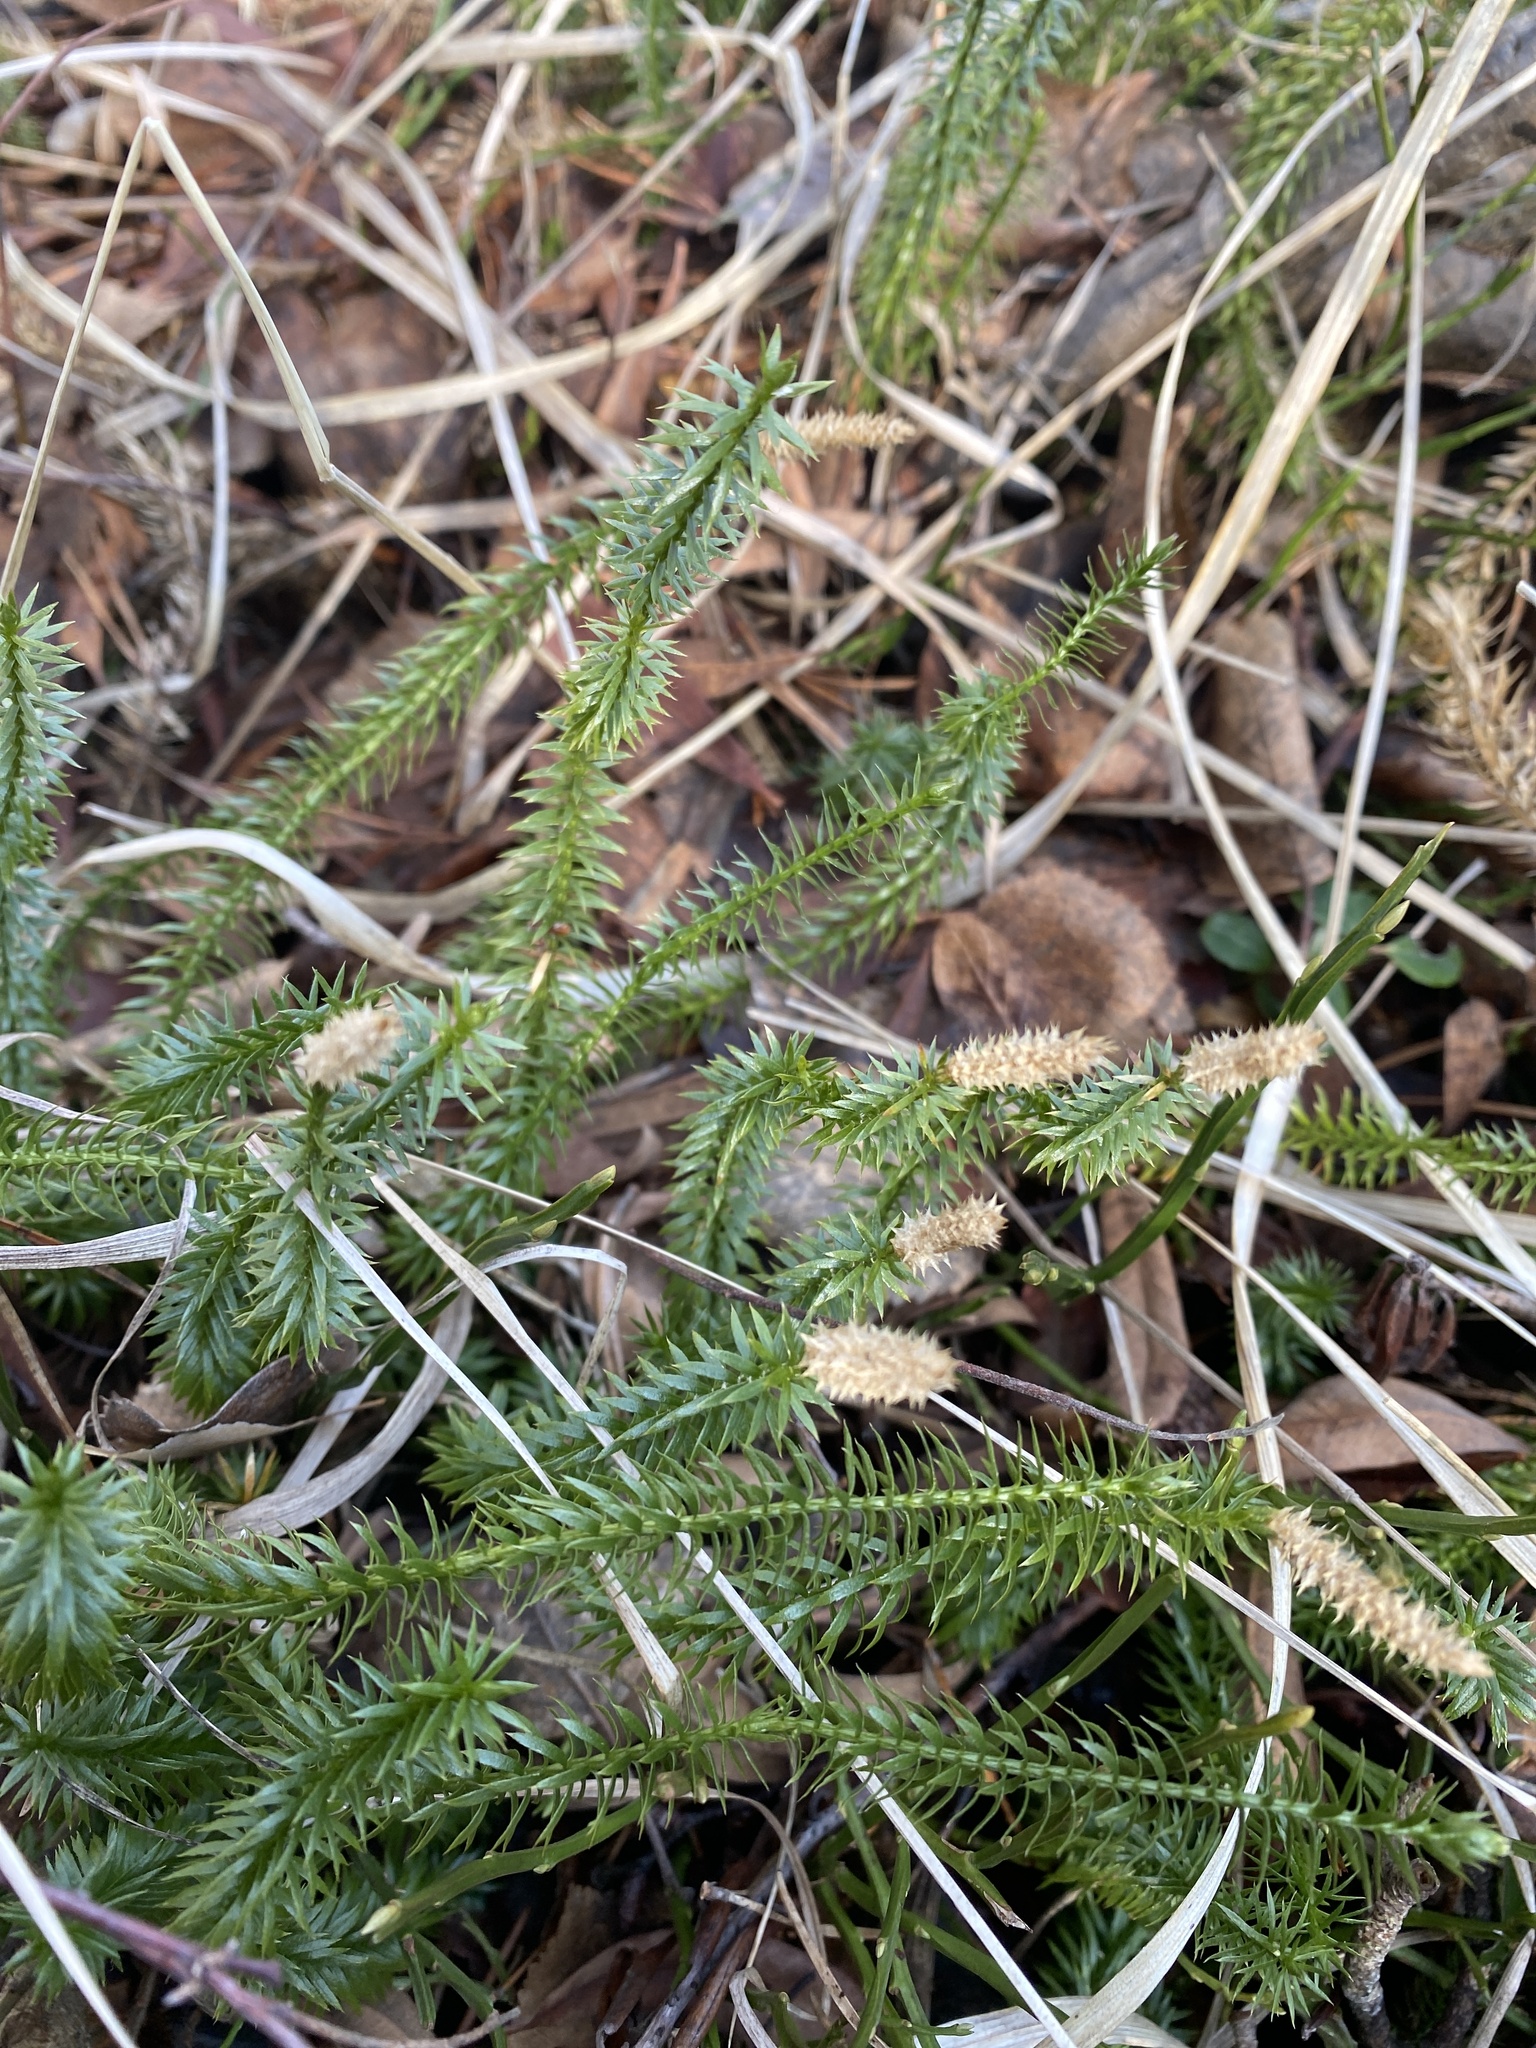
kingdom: Plantae
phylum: Tracheophyta
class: Lycopodiopsida
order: Lycopodiales
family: Lycopodiaceae
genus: Spinulum
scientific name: Spinulum annotinum
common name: Interrupted club-moss
